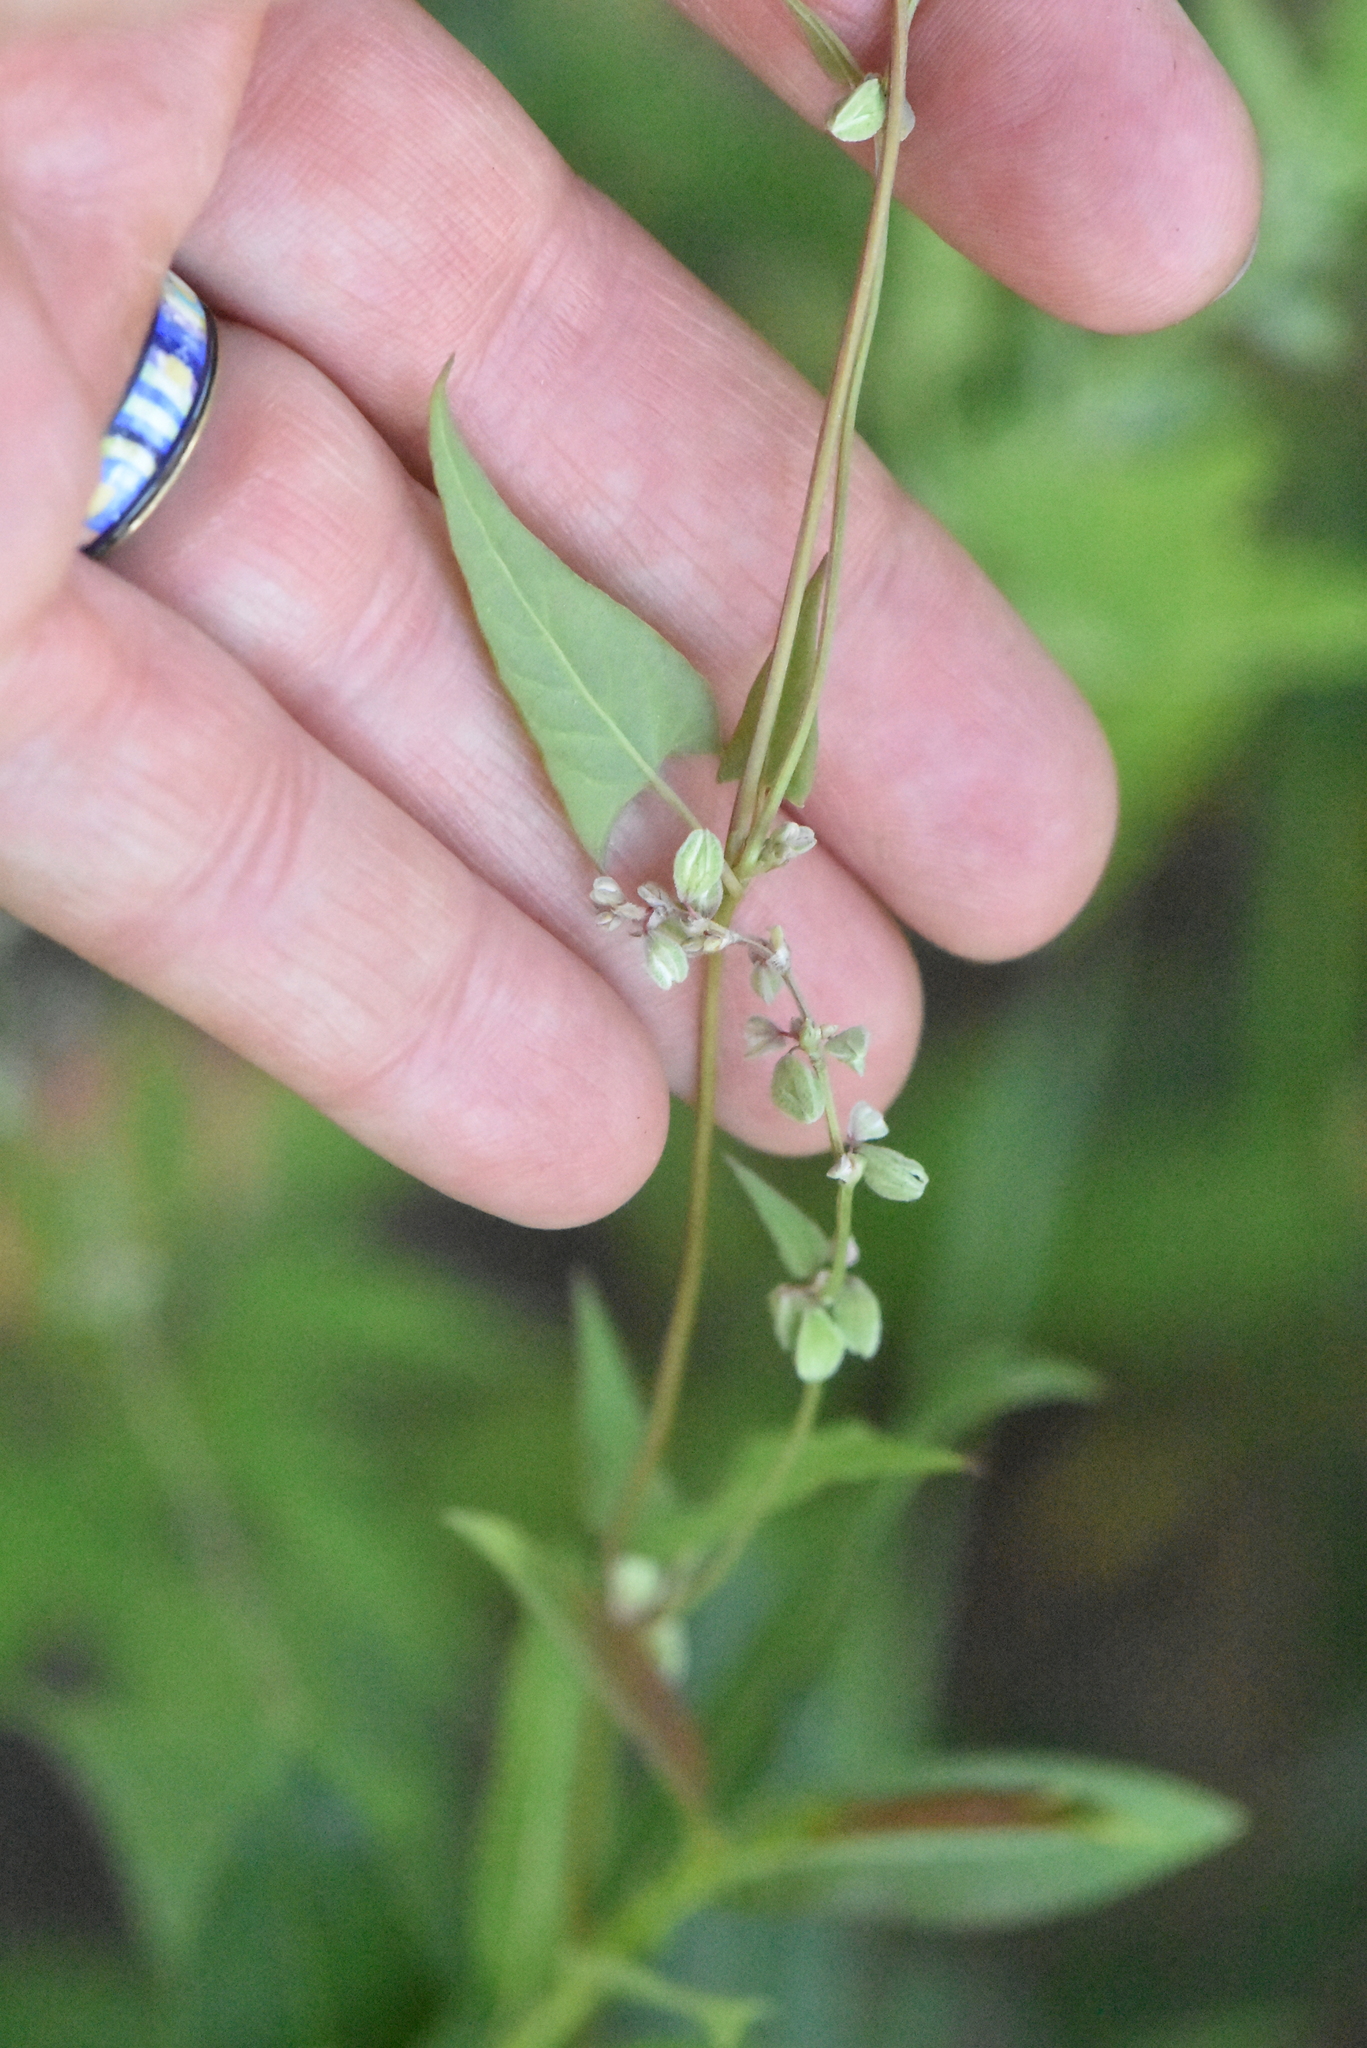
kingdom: Plantae
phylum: Tracheophyta
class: Liliopsida
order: Poales
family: Poaceae
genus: Setaria
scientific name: Setaria viridis
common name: Green bristlegrass
